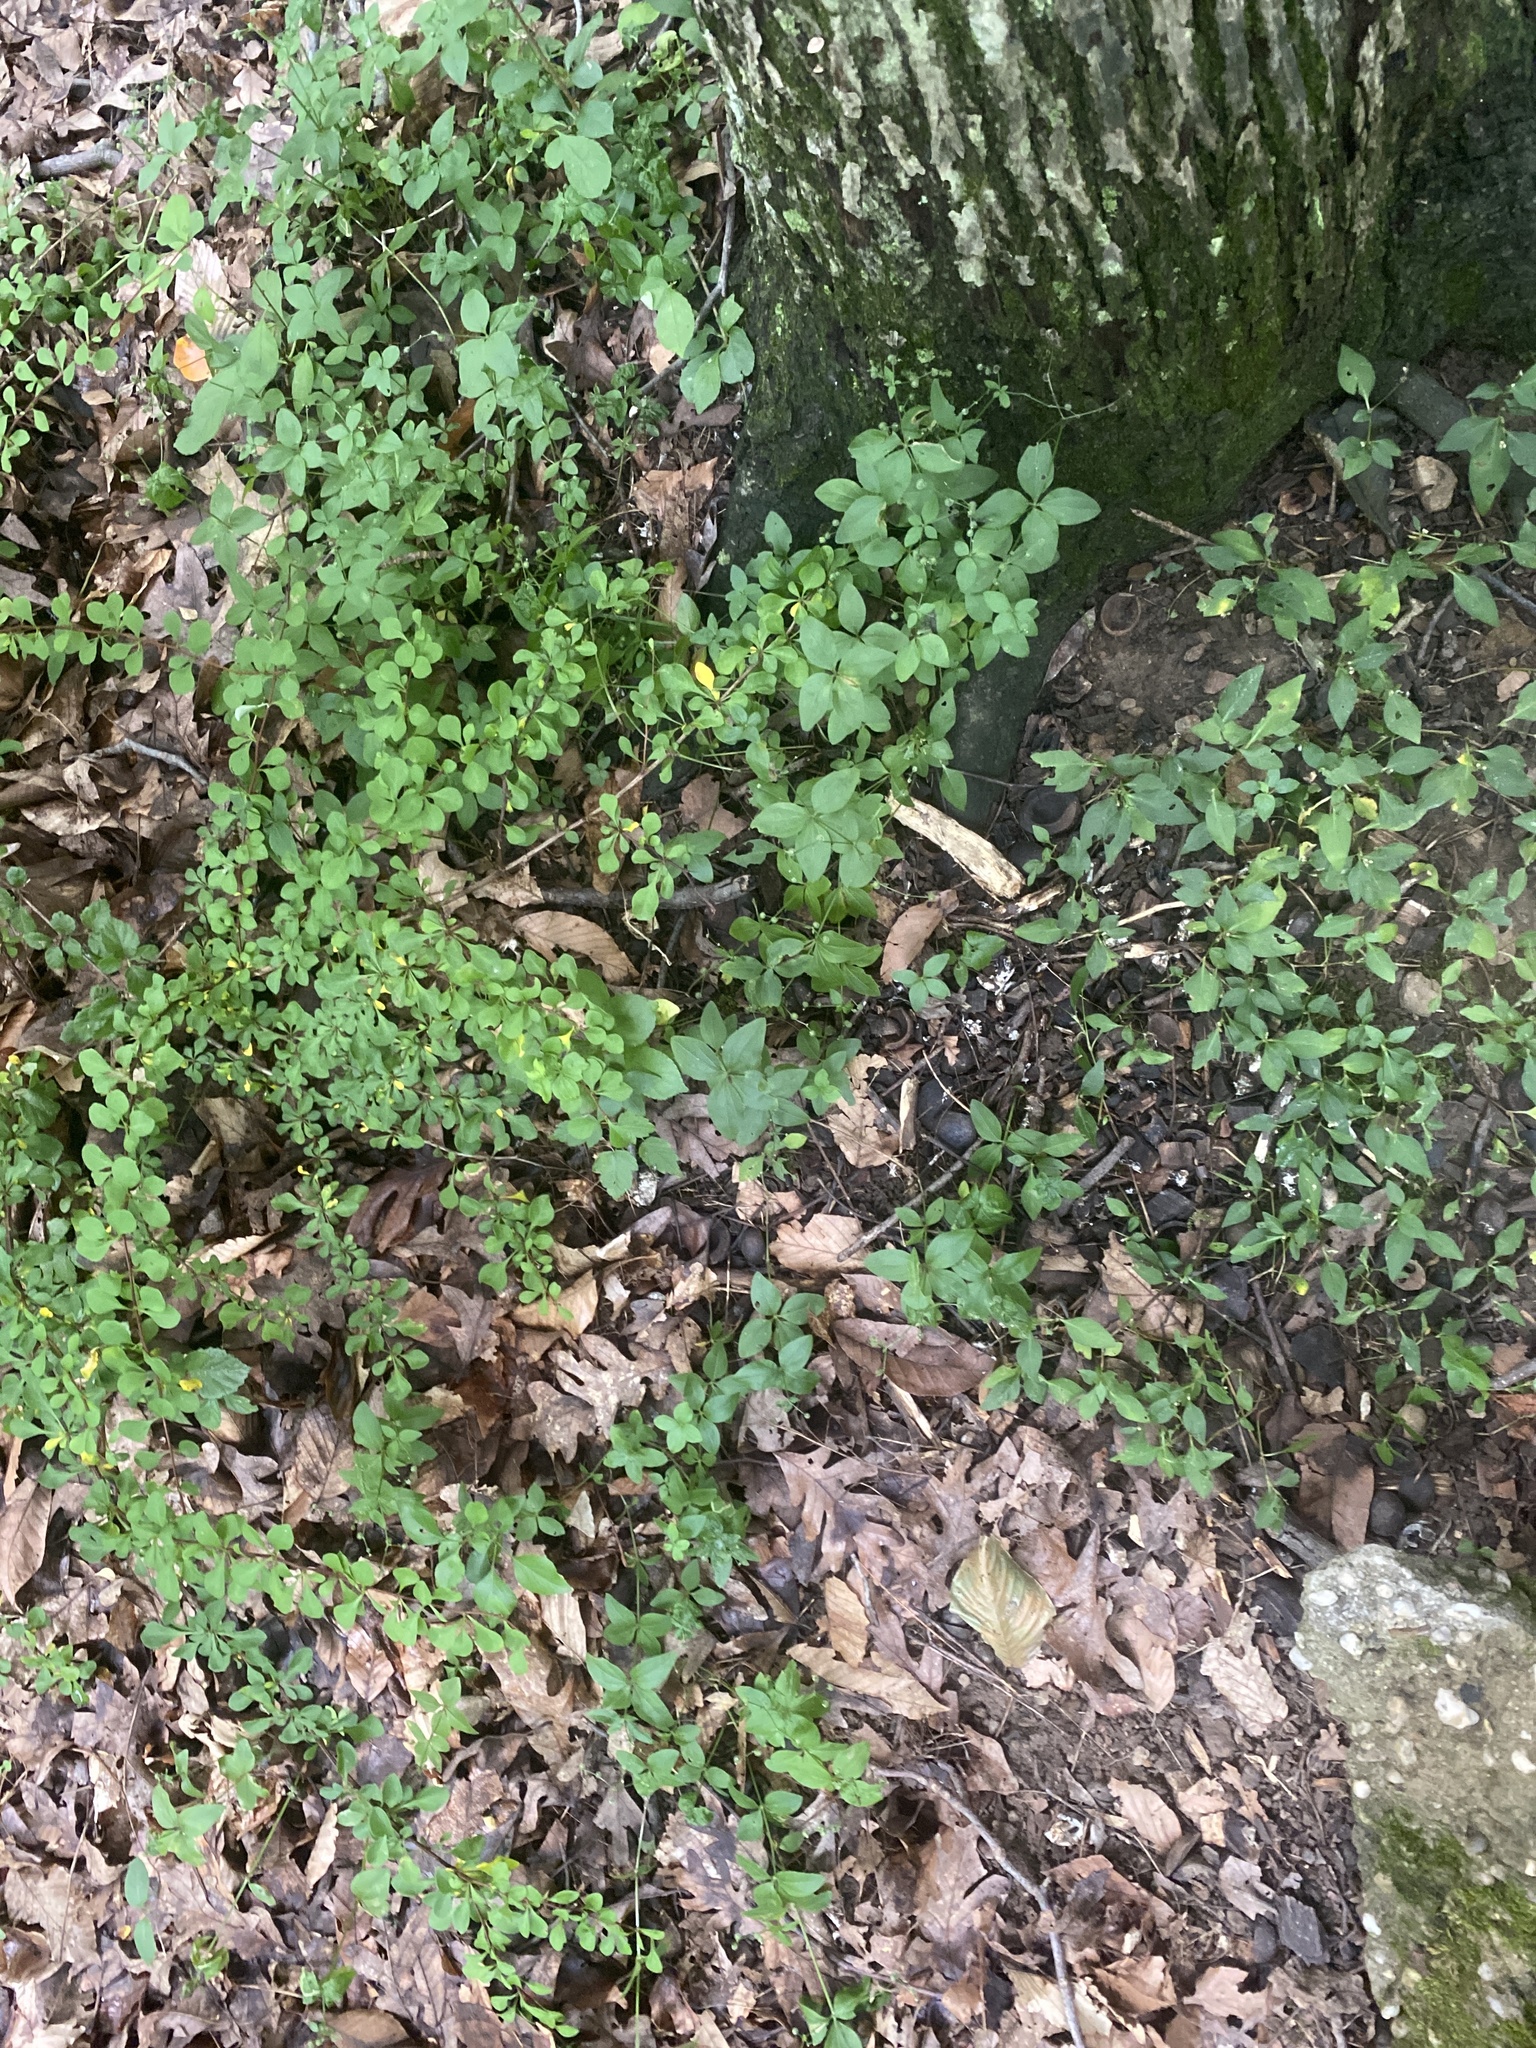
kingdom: Plantae
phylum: Tracheophyta
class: Magnoliopsida
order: Gentianales
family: Rubiaceae
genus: Galium
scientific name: Galium circaezans
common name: Forest bedstraw
